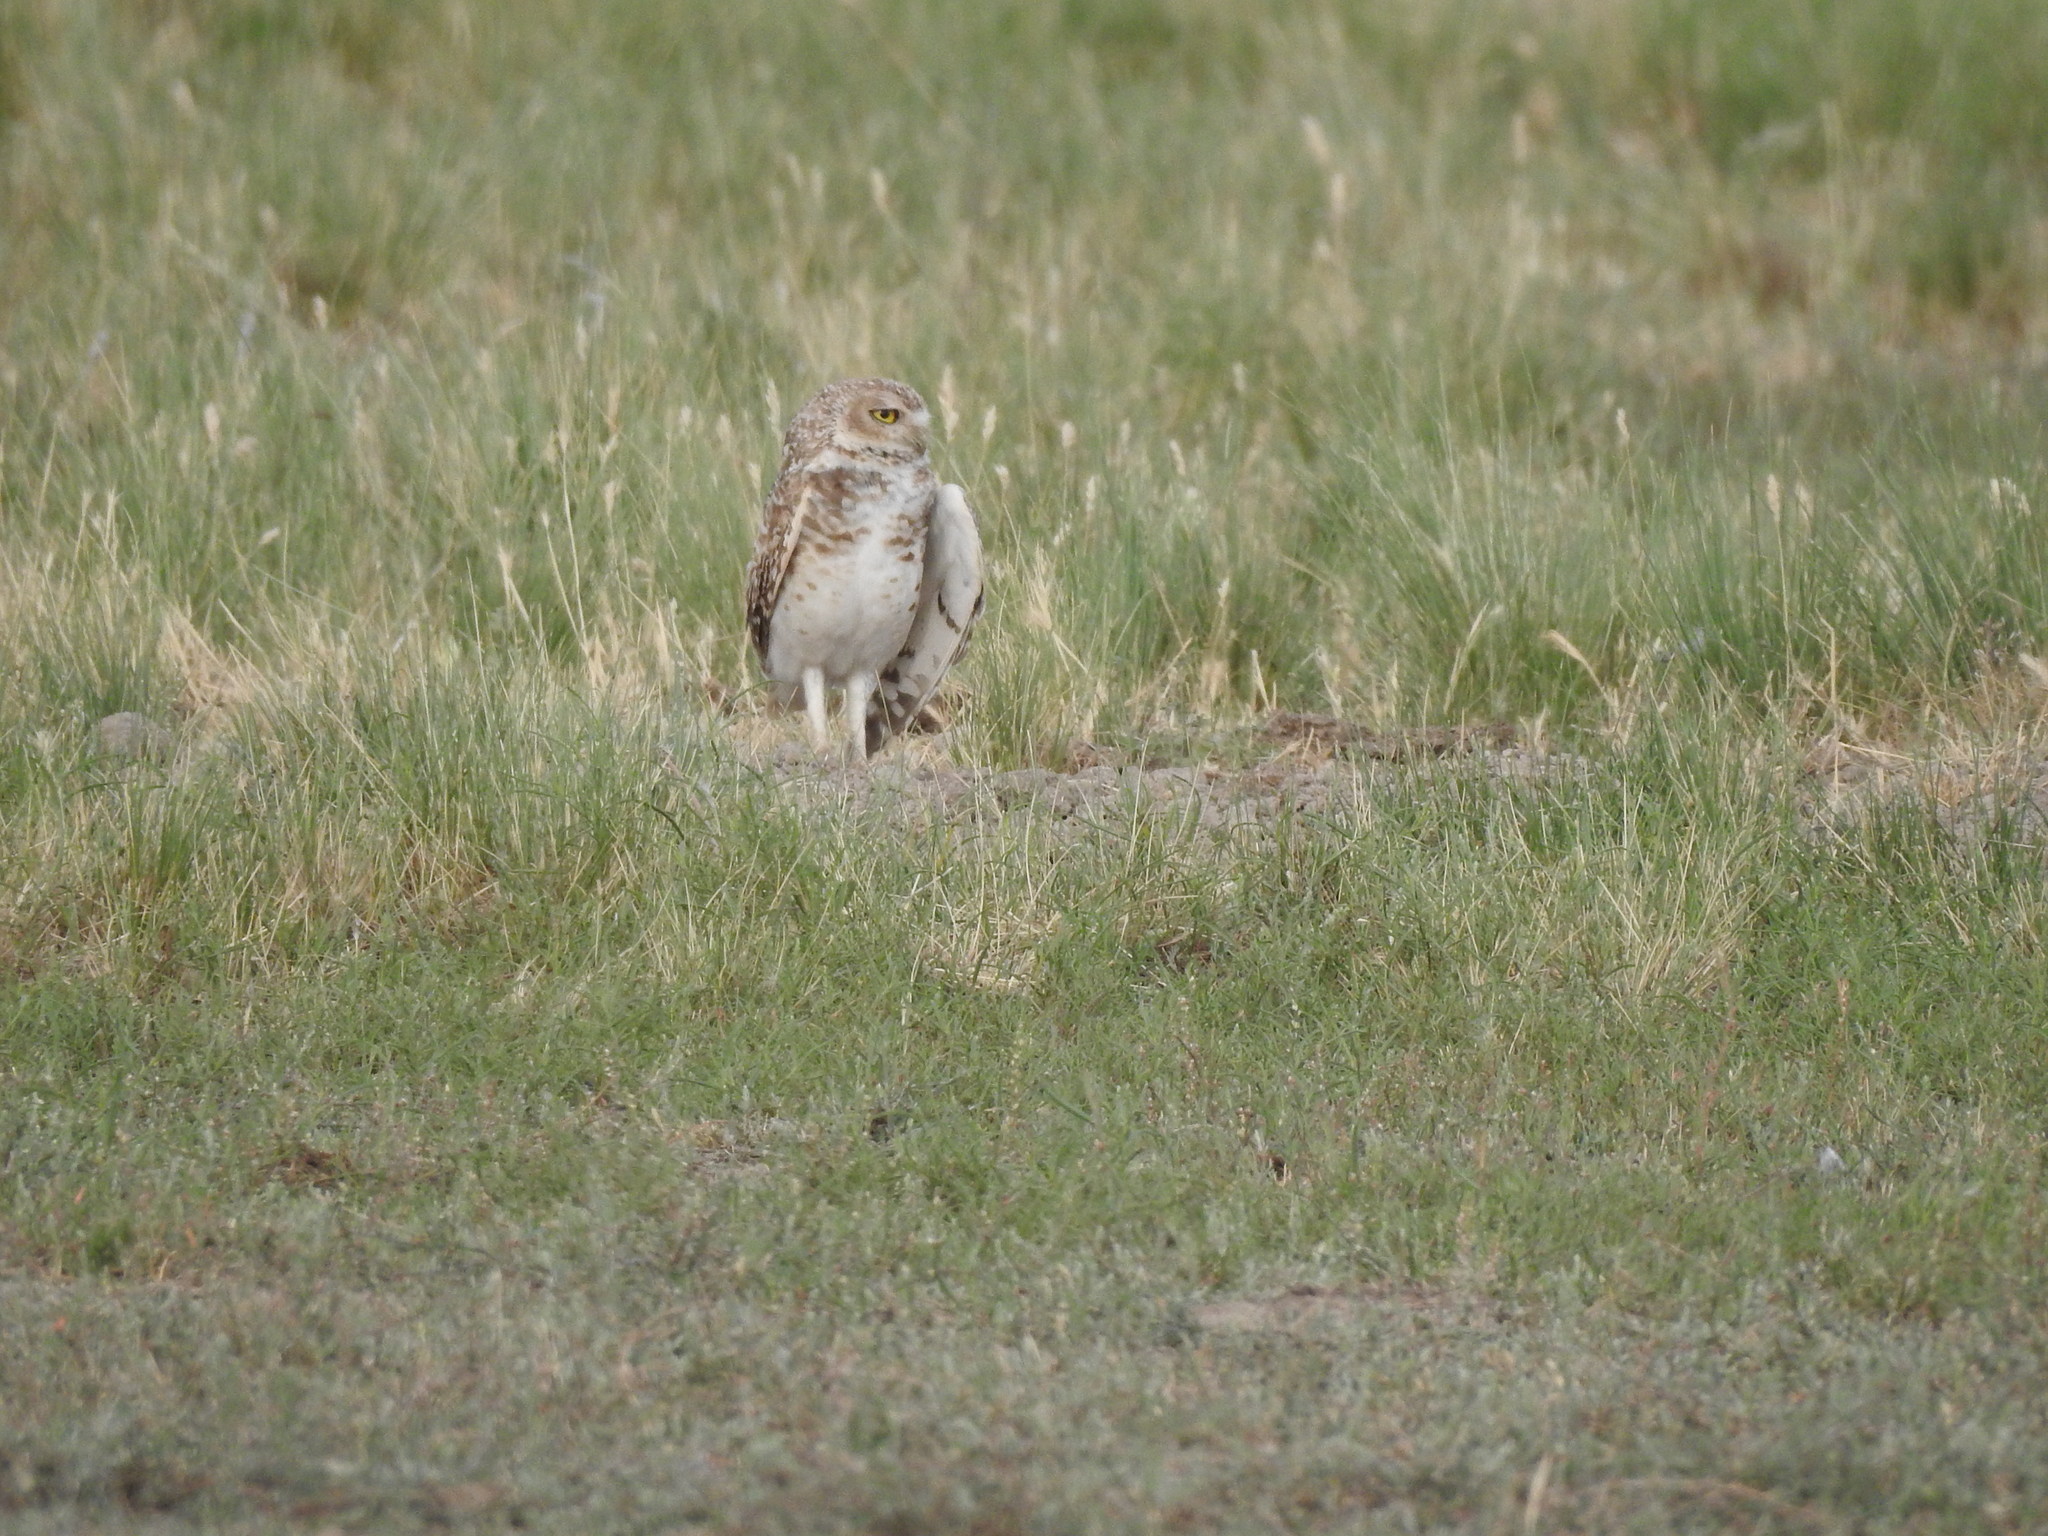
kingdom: Animalia
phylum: Chordata
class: Aves
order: Strigiformes
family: Strigidae
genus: Athene
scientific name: Athene cunicularia
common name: Burrowing owl
